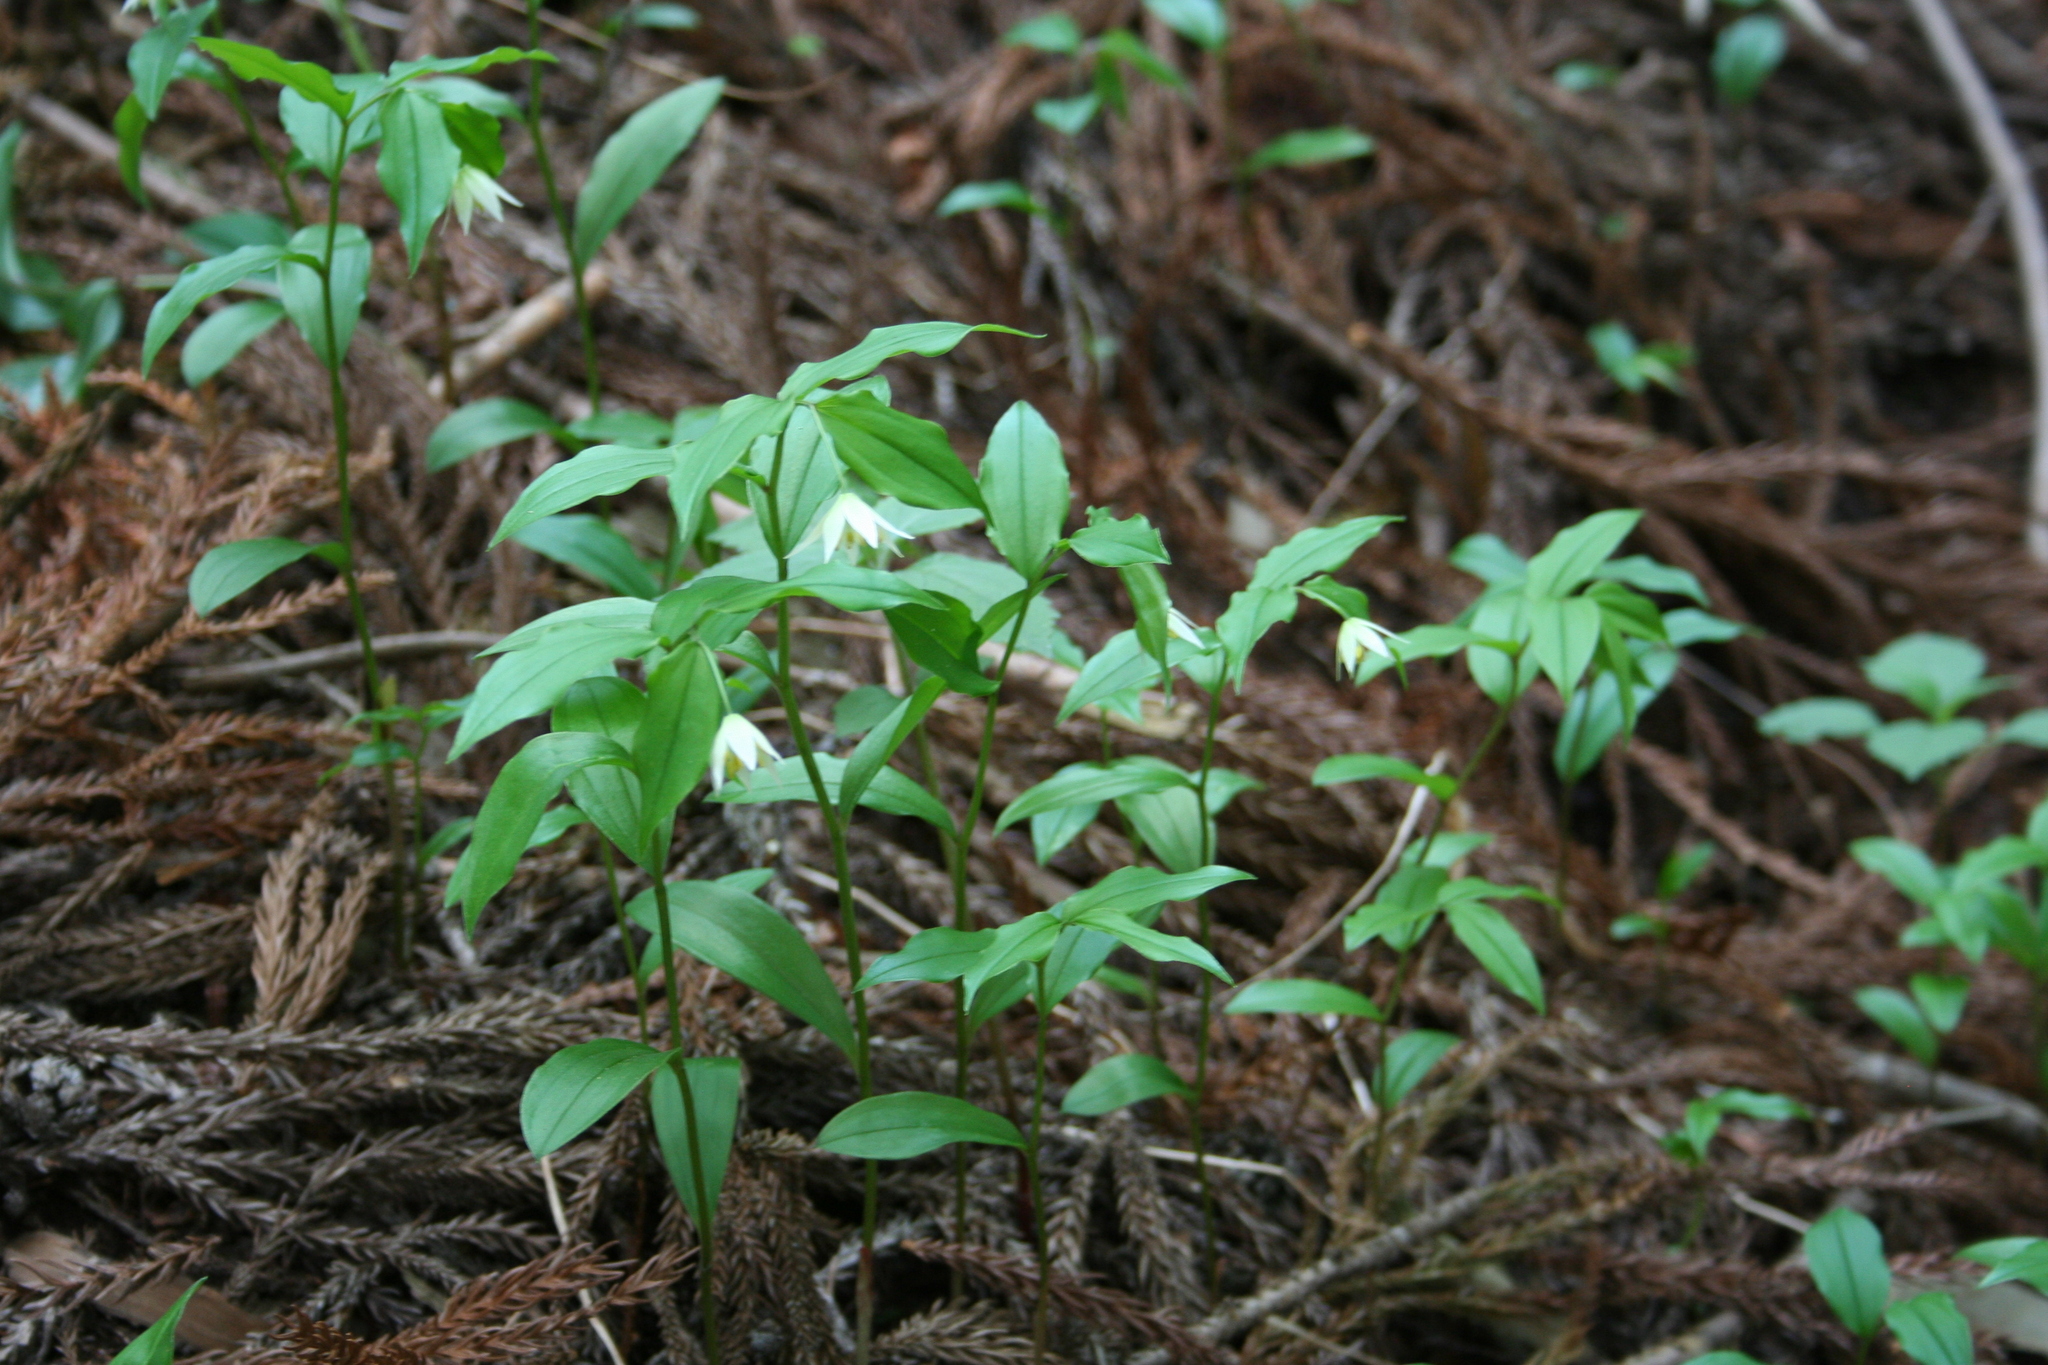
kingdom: Plantae
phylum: Tracheophyta
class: Liliopsida
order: Liliales
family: Colchicaceae
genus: Disporum
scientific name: Disporum smilacinum
